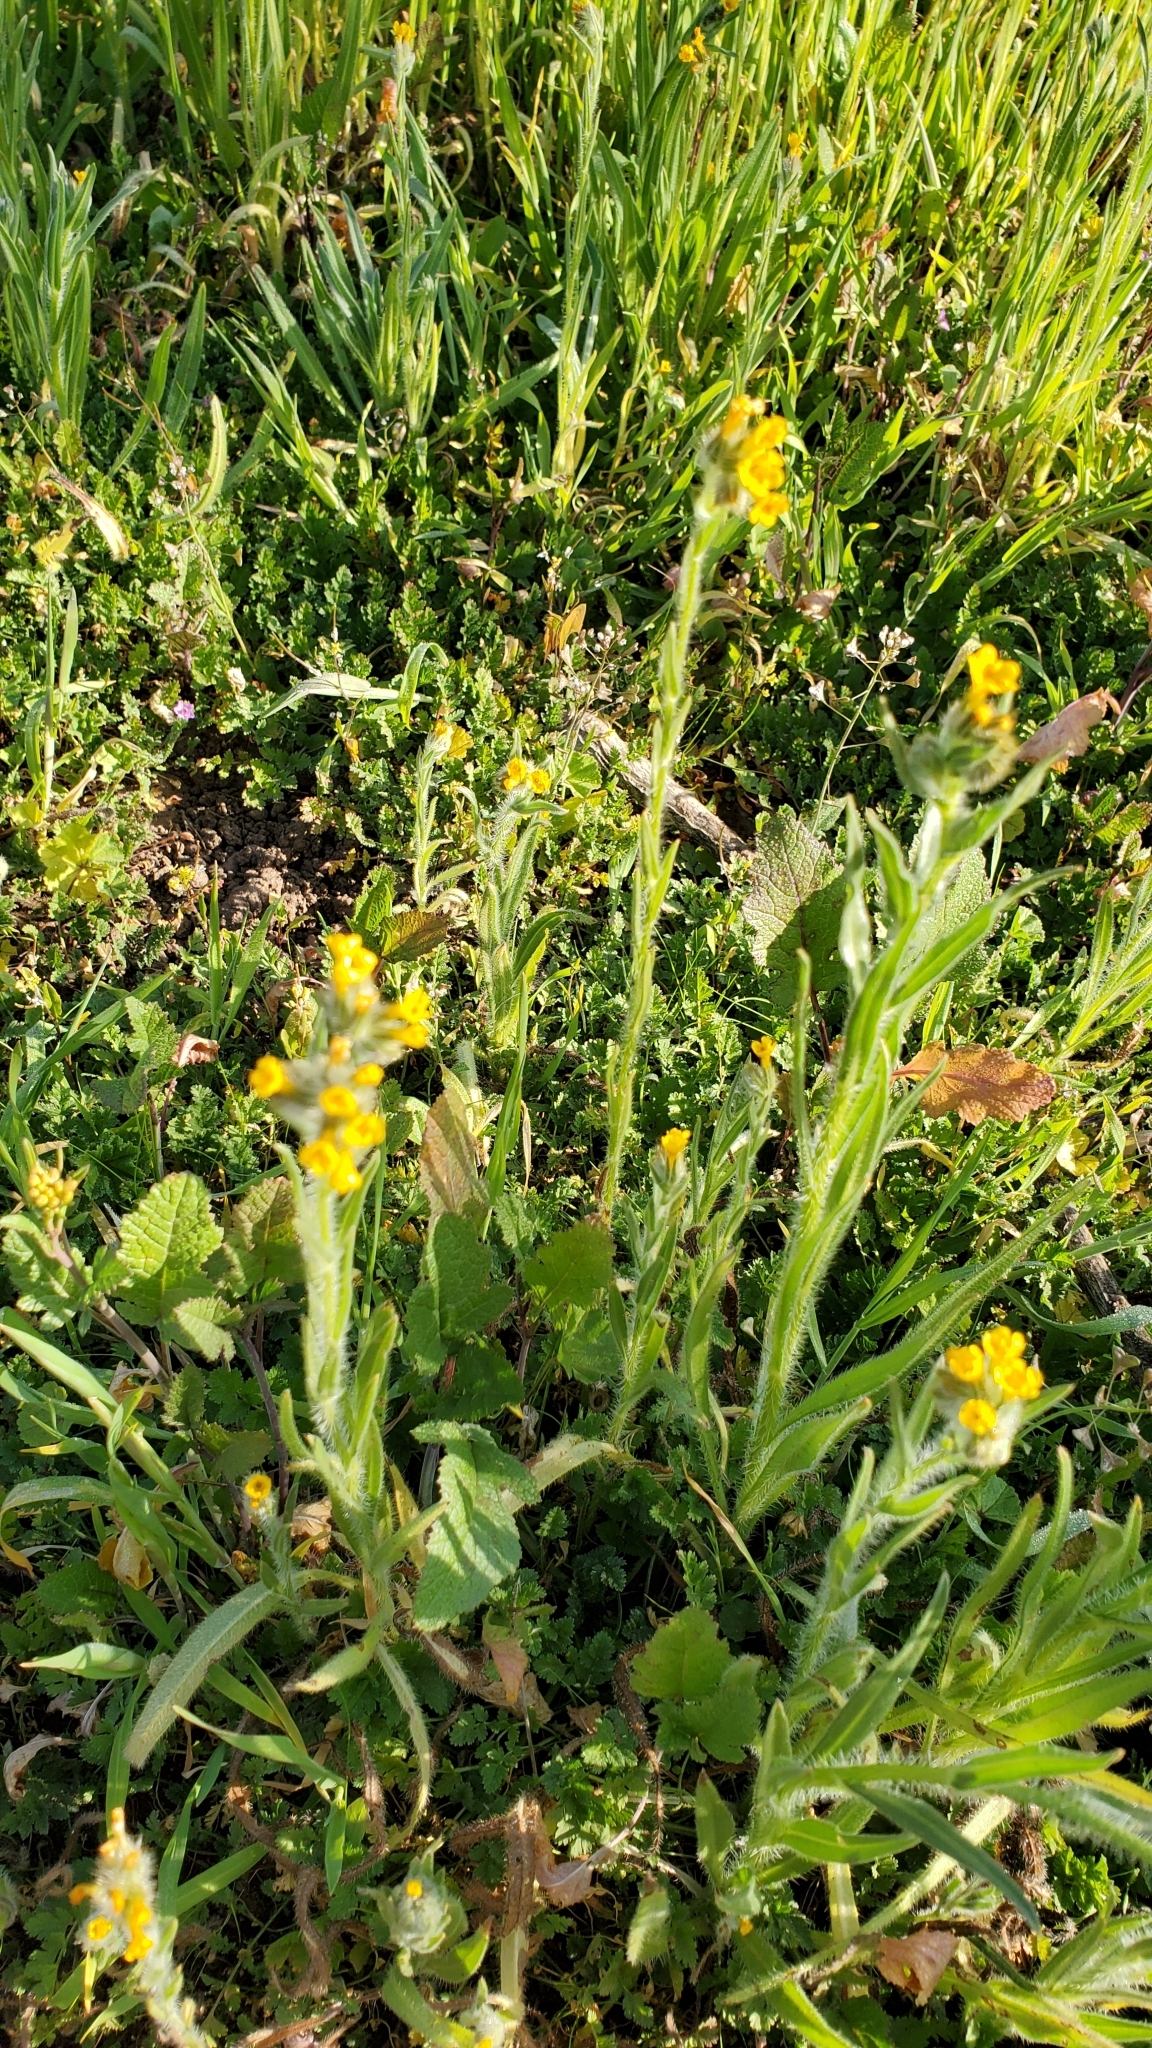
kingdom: Plantae
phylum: Tracheophyta
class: Magnoliopsida
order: Boraginales
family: Boraginaceae
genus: Amsinckia
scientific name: Amsinckia menziesii
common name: Menzies' fiddleneck
